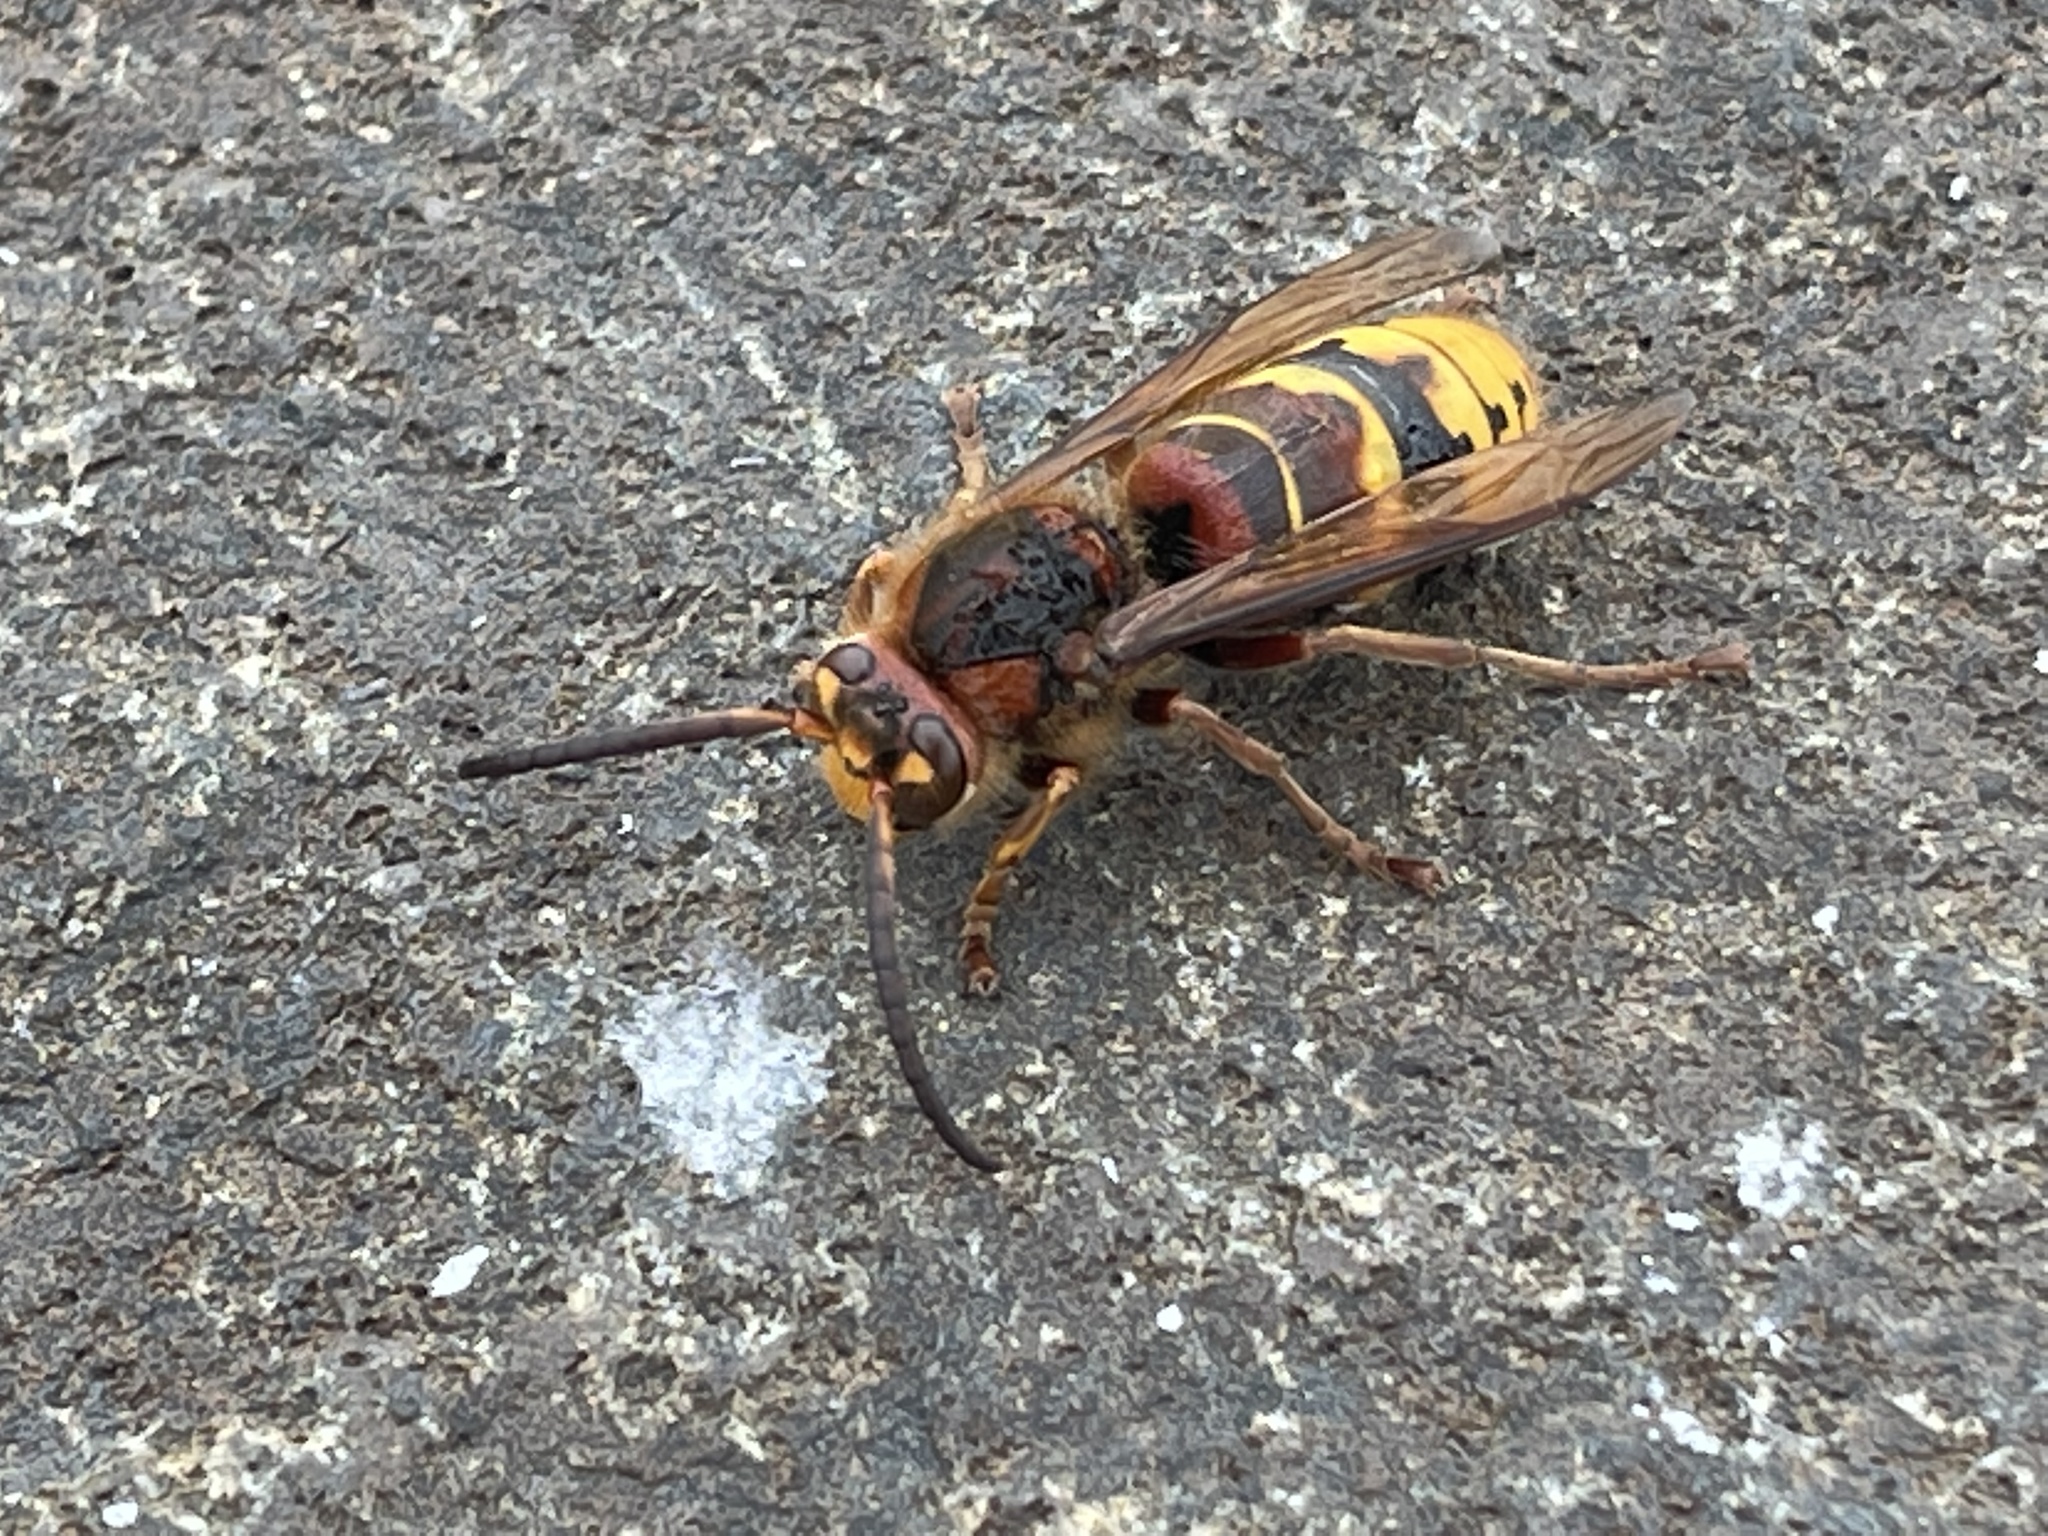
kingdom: Animalia
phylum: Arthropoda
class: Insecta
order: Hymenoptera
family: Vespidae
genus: Vespa
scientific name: Vespa crabro
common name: Hornet
